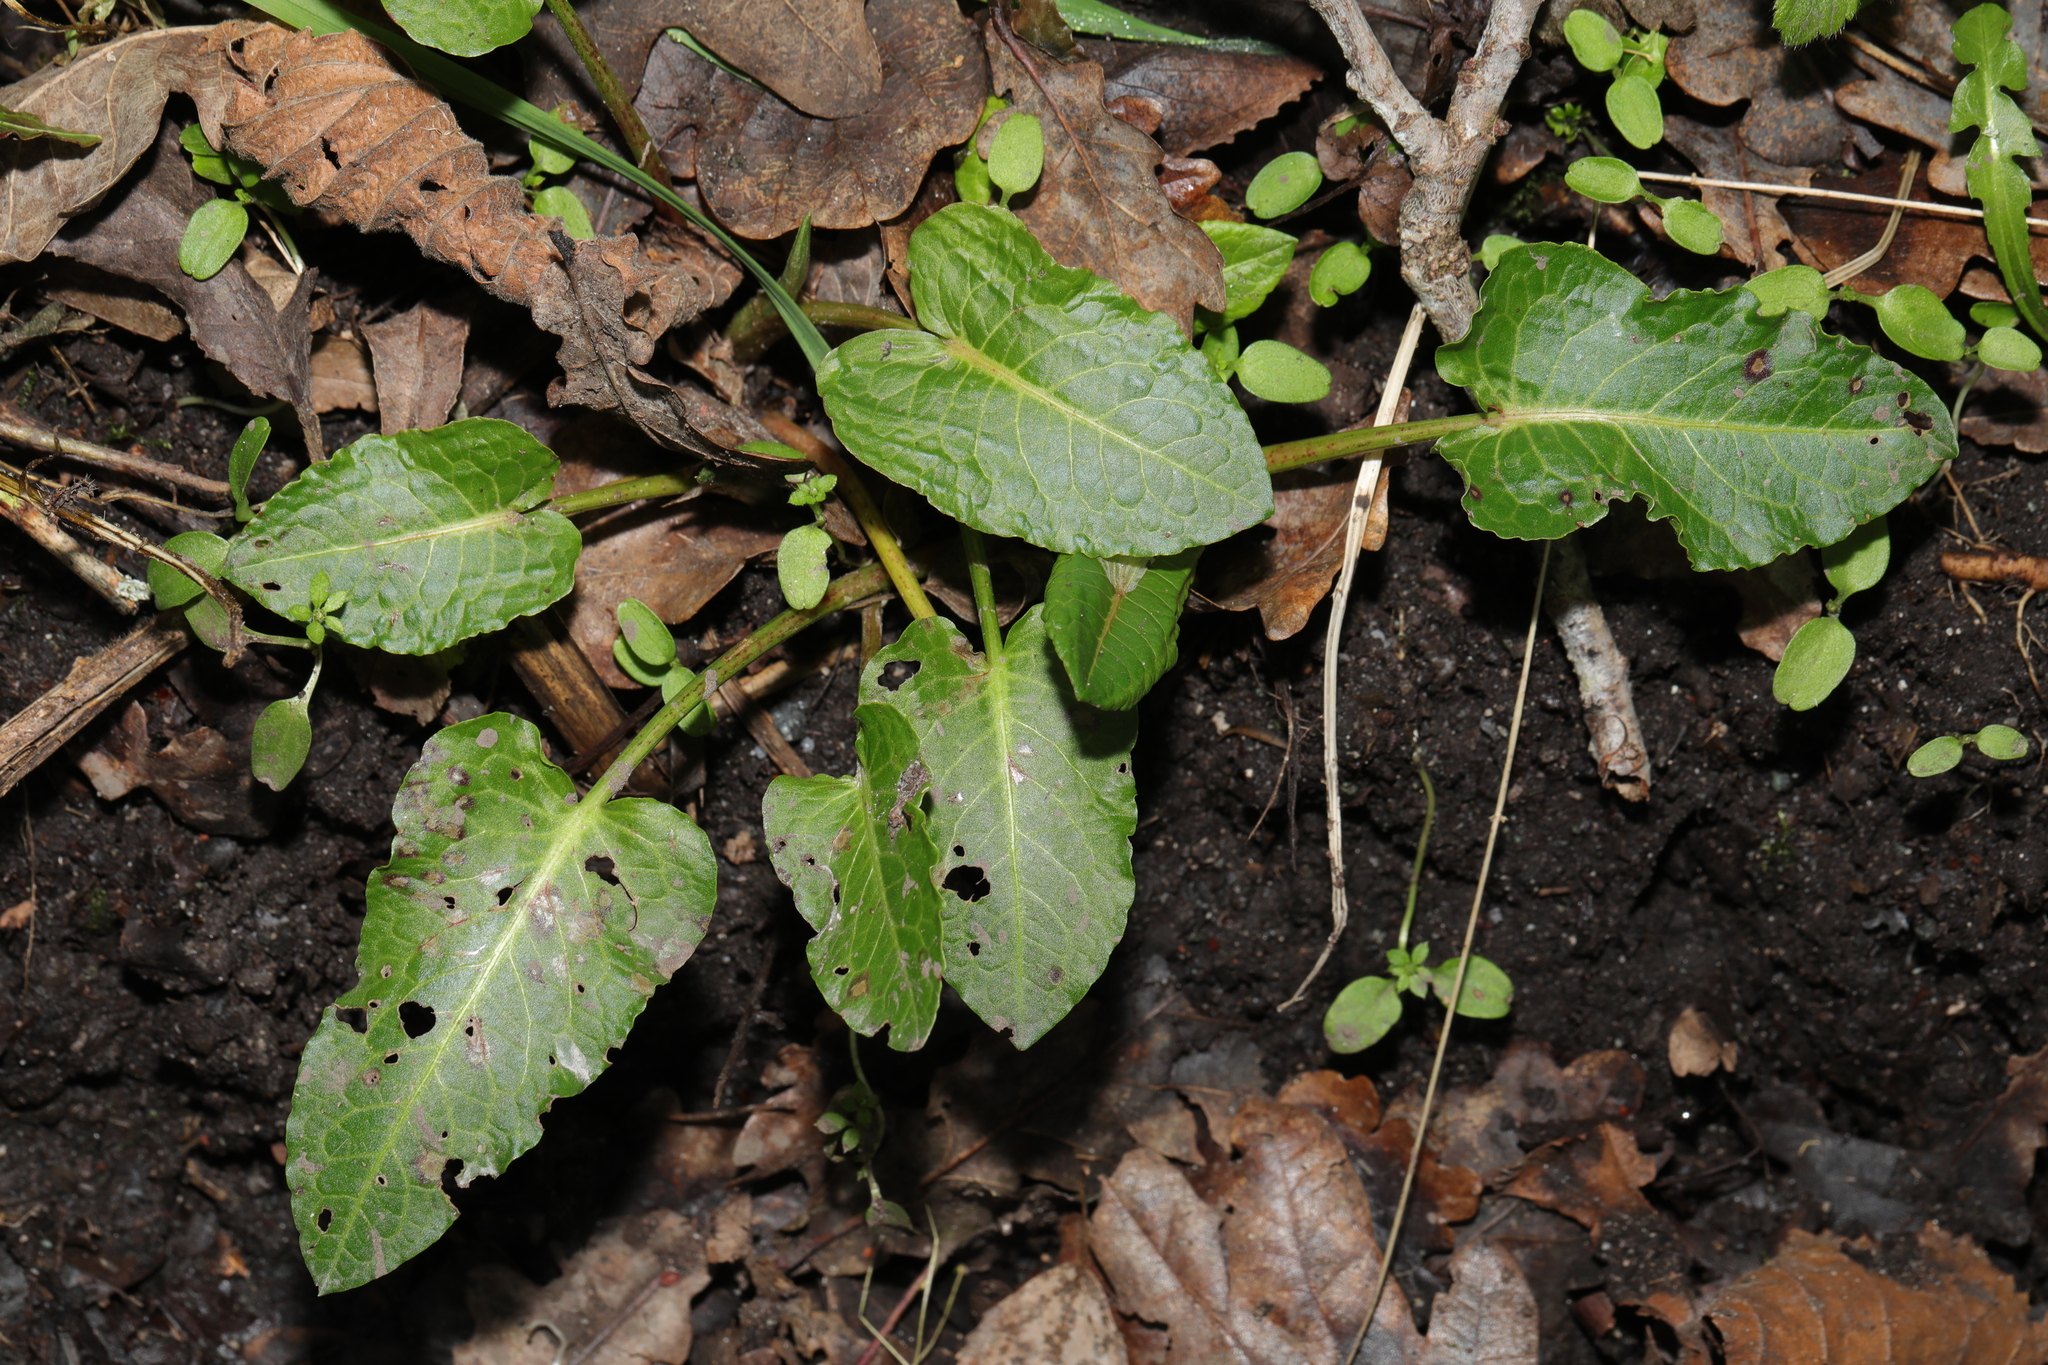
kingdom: Plantae
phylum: Tracheophyta
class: Magnoliopsida
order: Caryophyllales
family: Polygonaceae
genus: Rumex
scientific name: Rumex obtusifolius
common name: Bitter dock
